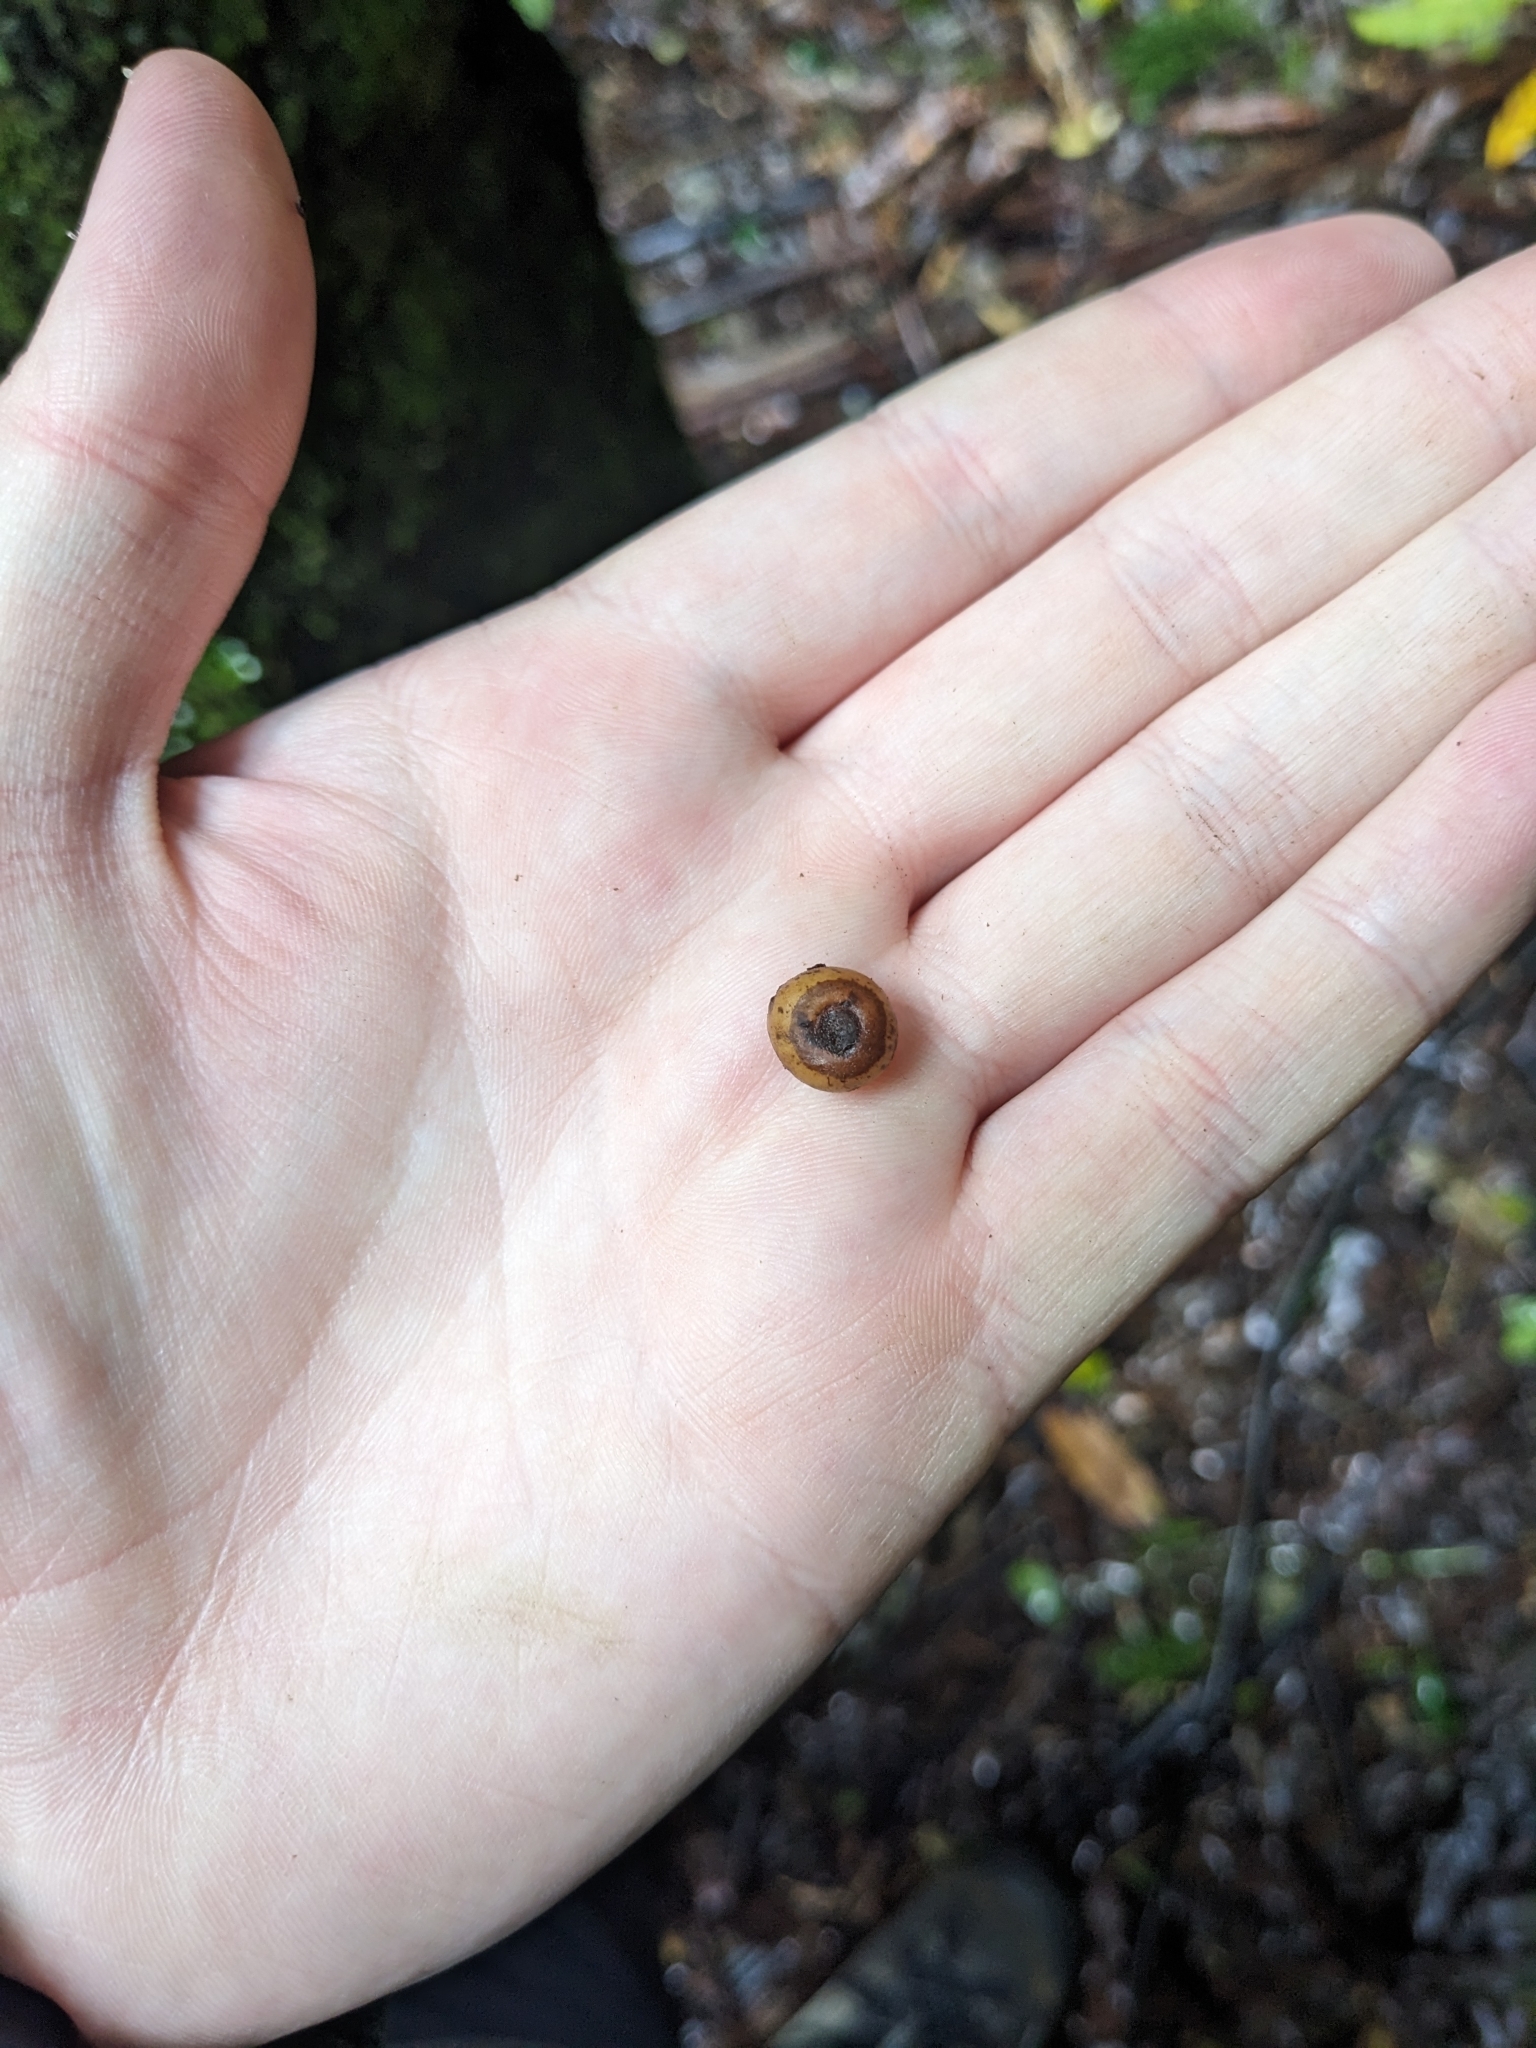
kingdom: Plantae
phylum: Tracheophyta
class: Liliopsida
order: Liliales
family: Ripogonaceae
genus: Ripogonum
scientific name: Ripogonum scandens
